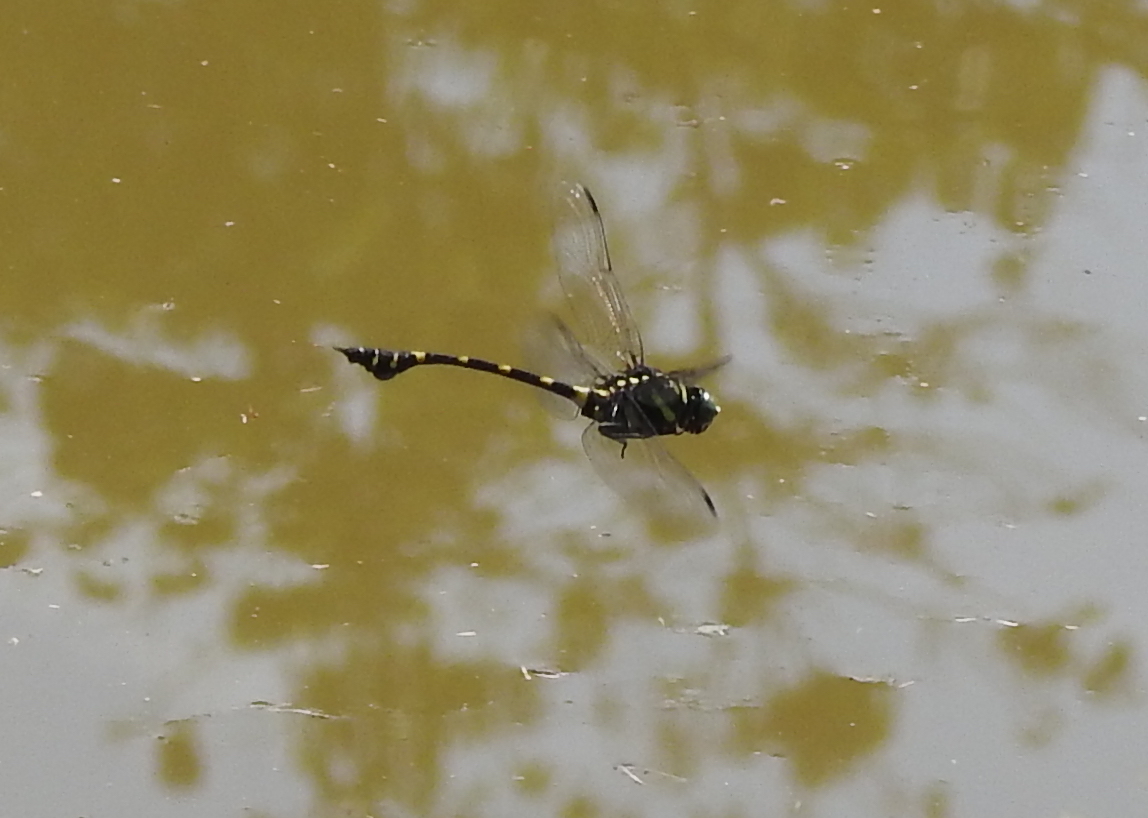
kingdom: Animalia
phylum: Arthropoda
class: Insecta
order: Odonata
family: Gomphidae
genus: Ictinogomphus
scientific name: Ictinogomphus decoratus
